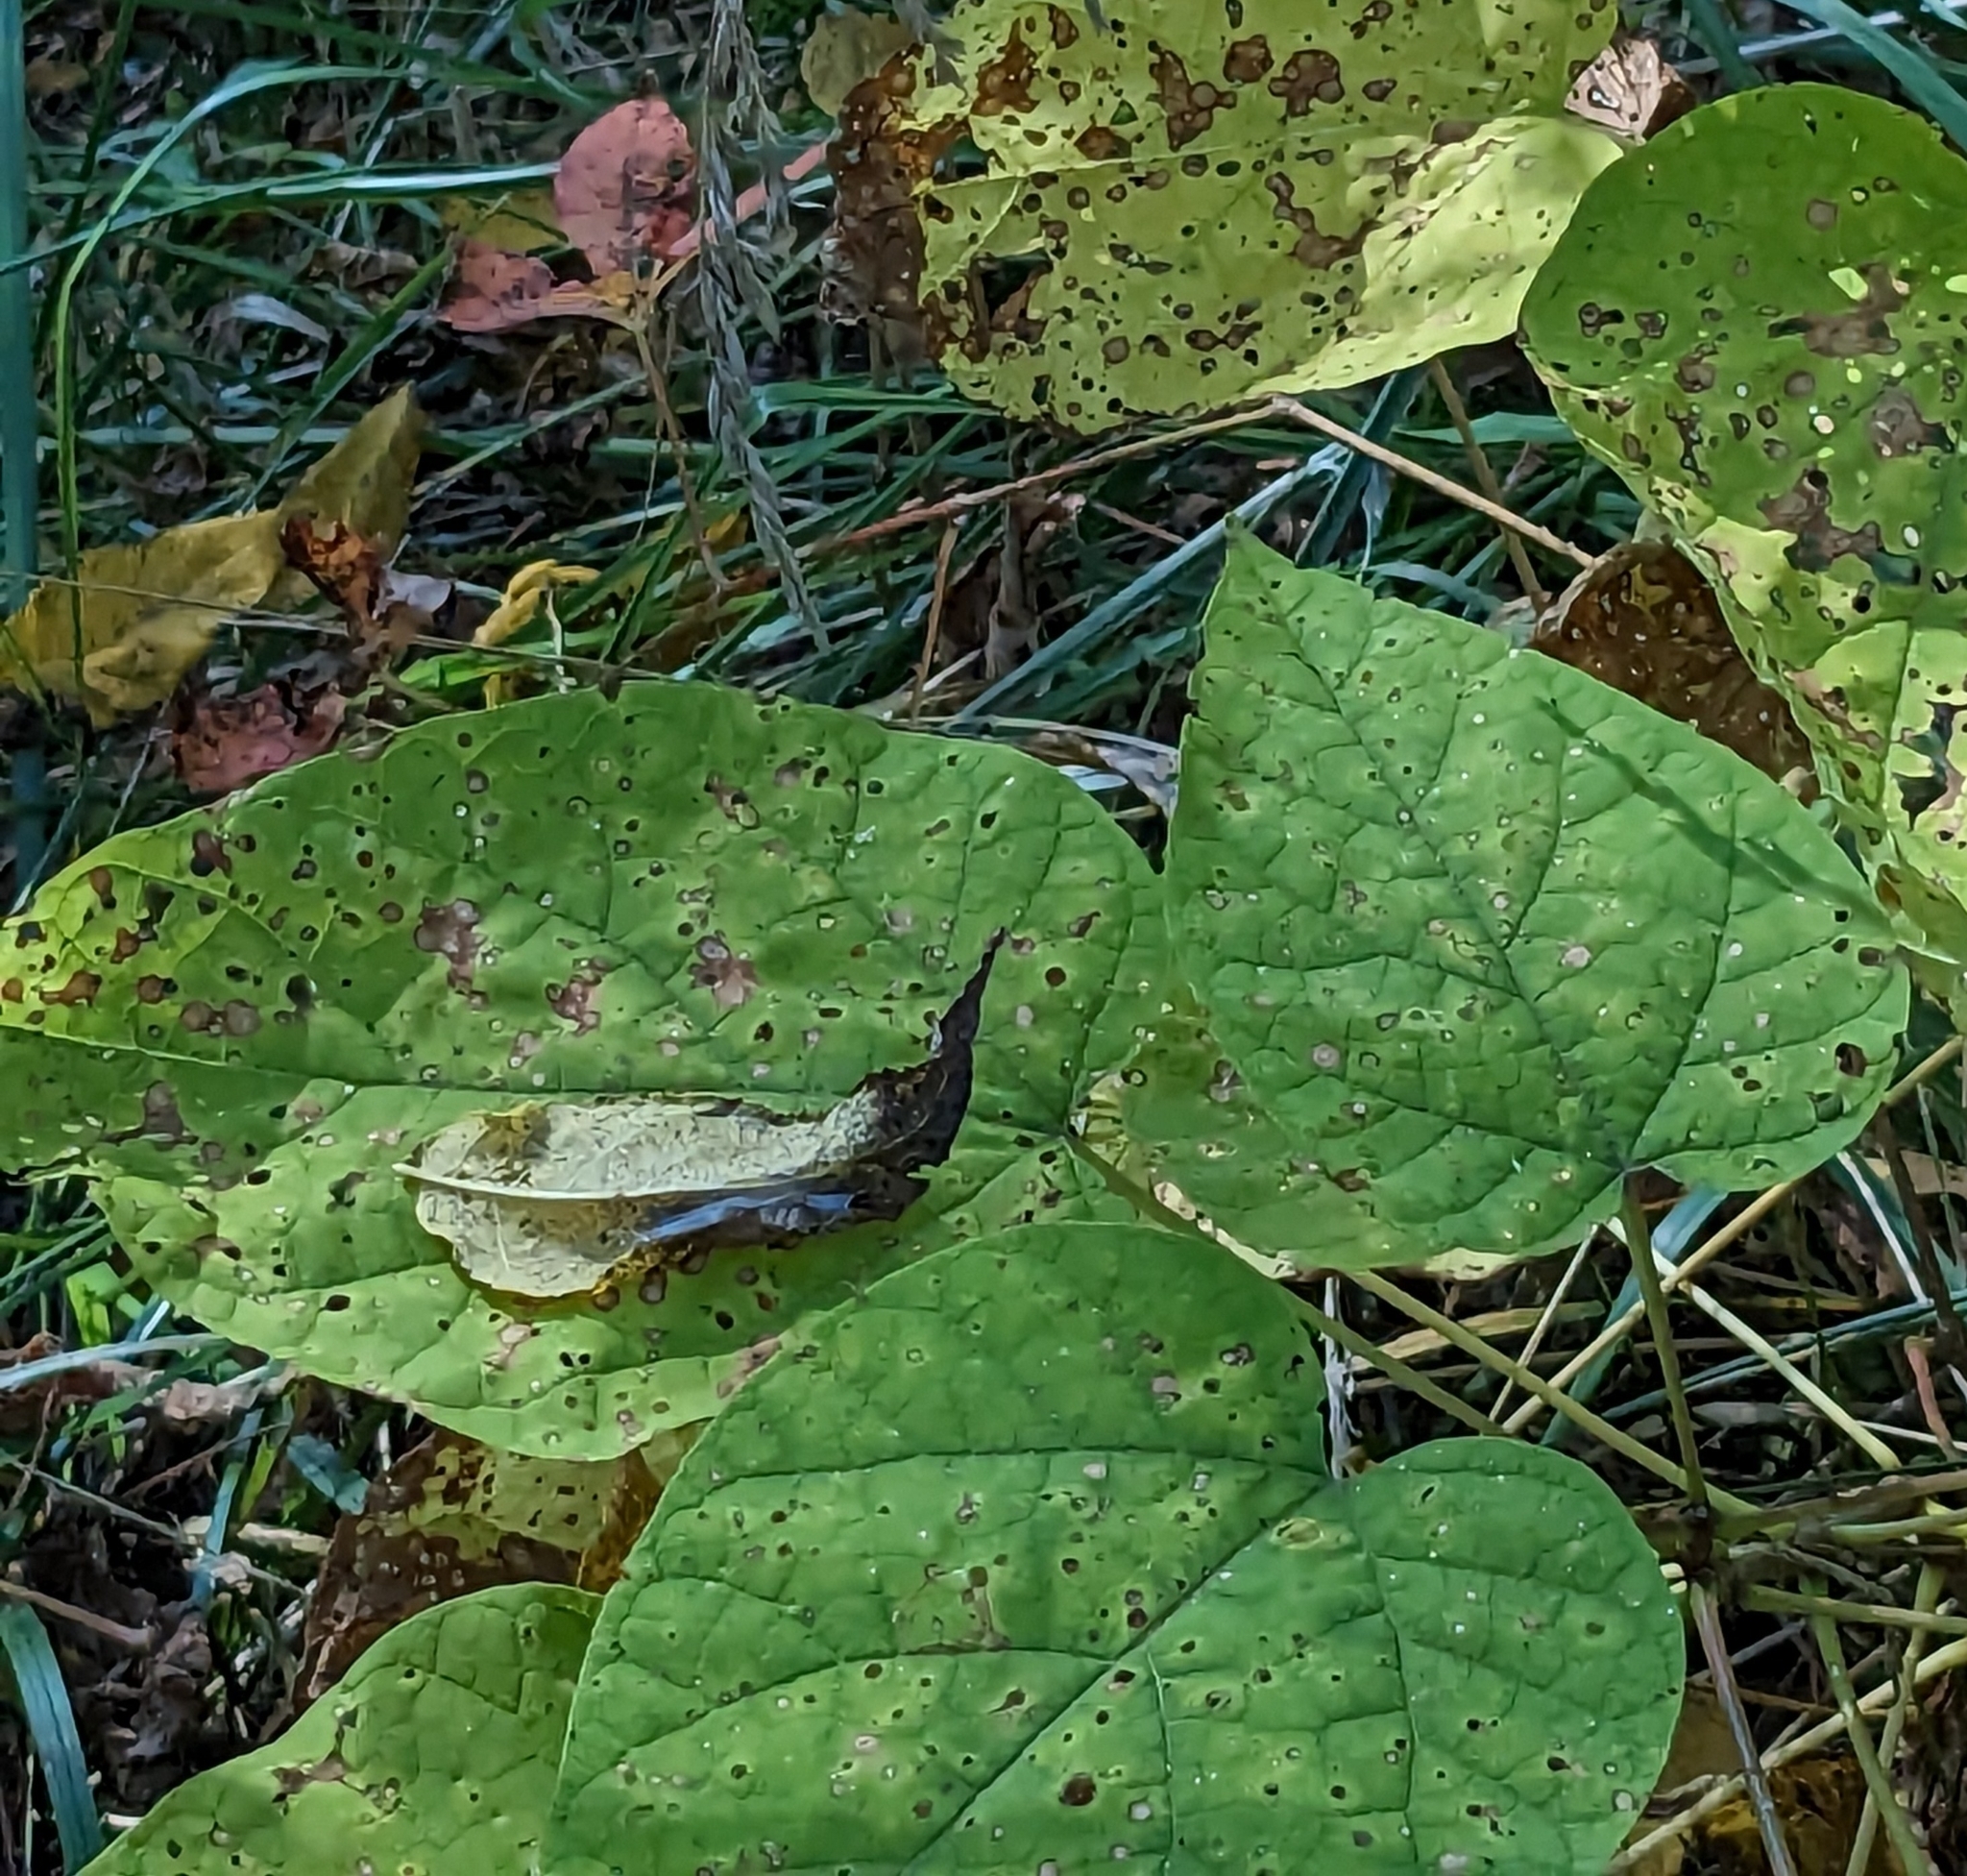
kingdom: Plantae
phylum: Tracheophyta
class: Magnoliopsida
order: Lamiales
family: Bignoniaceae
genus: Catalpa
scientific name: Catalpa speciosa
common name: Northern catalpa
